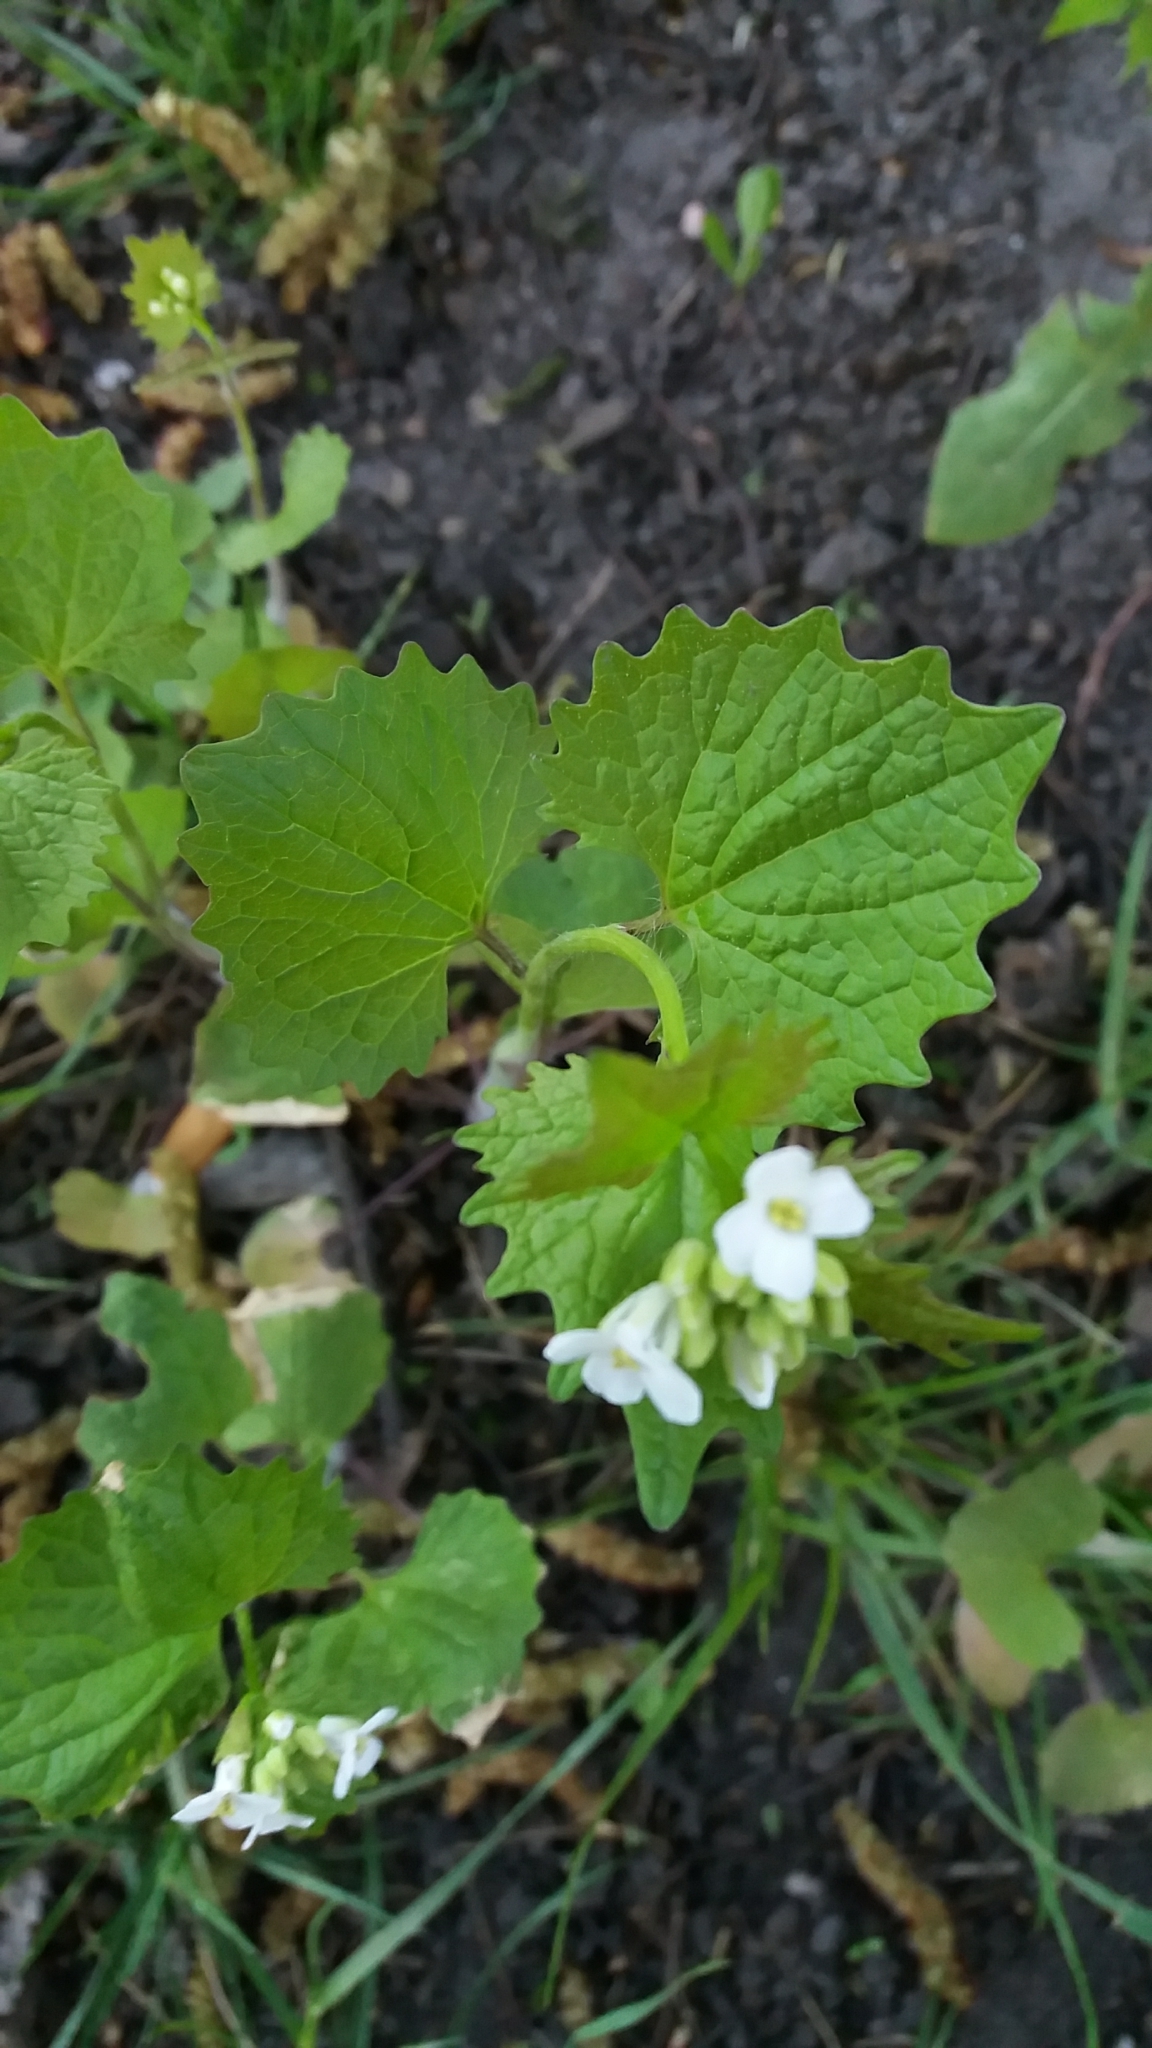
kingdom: Plantae
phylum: Tracheophyta
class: Magnoliopsida
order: Brassicales
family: Brassicaceae
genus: Alliaria
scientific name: Alliaria petiolata
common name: Garlic mustard
